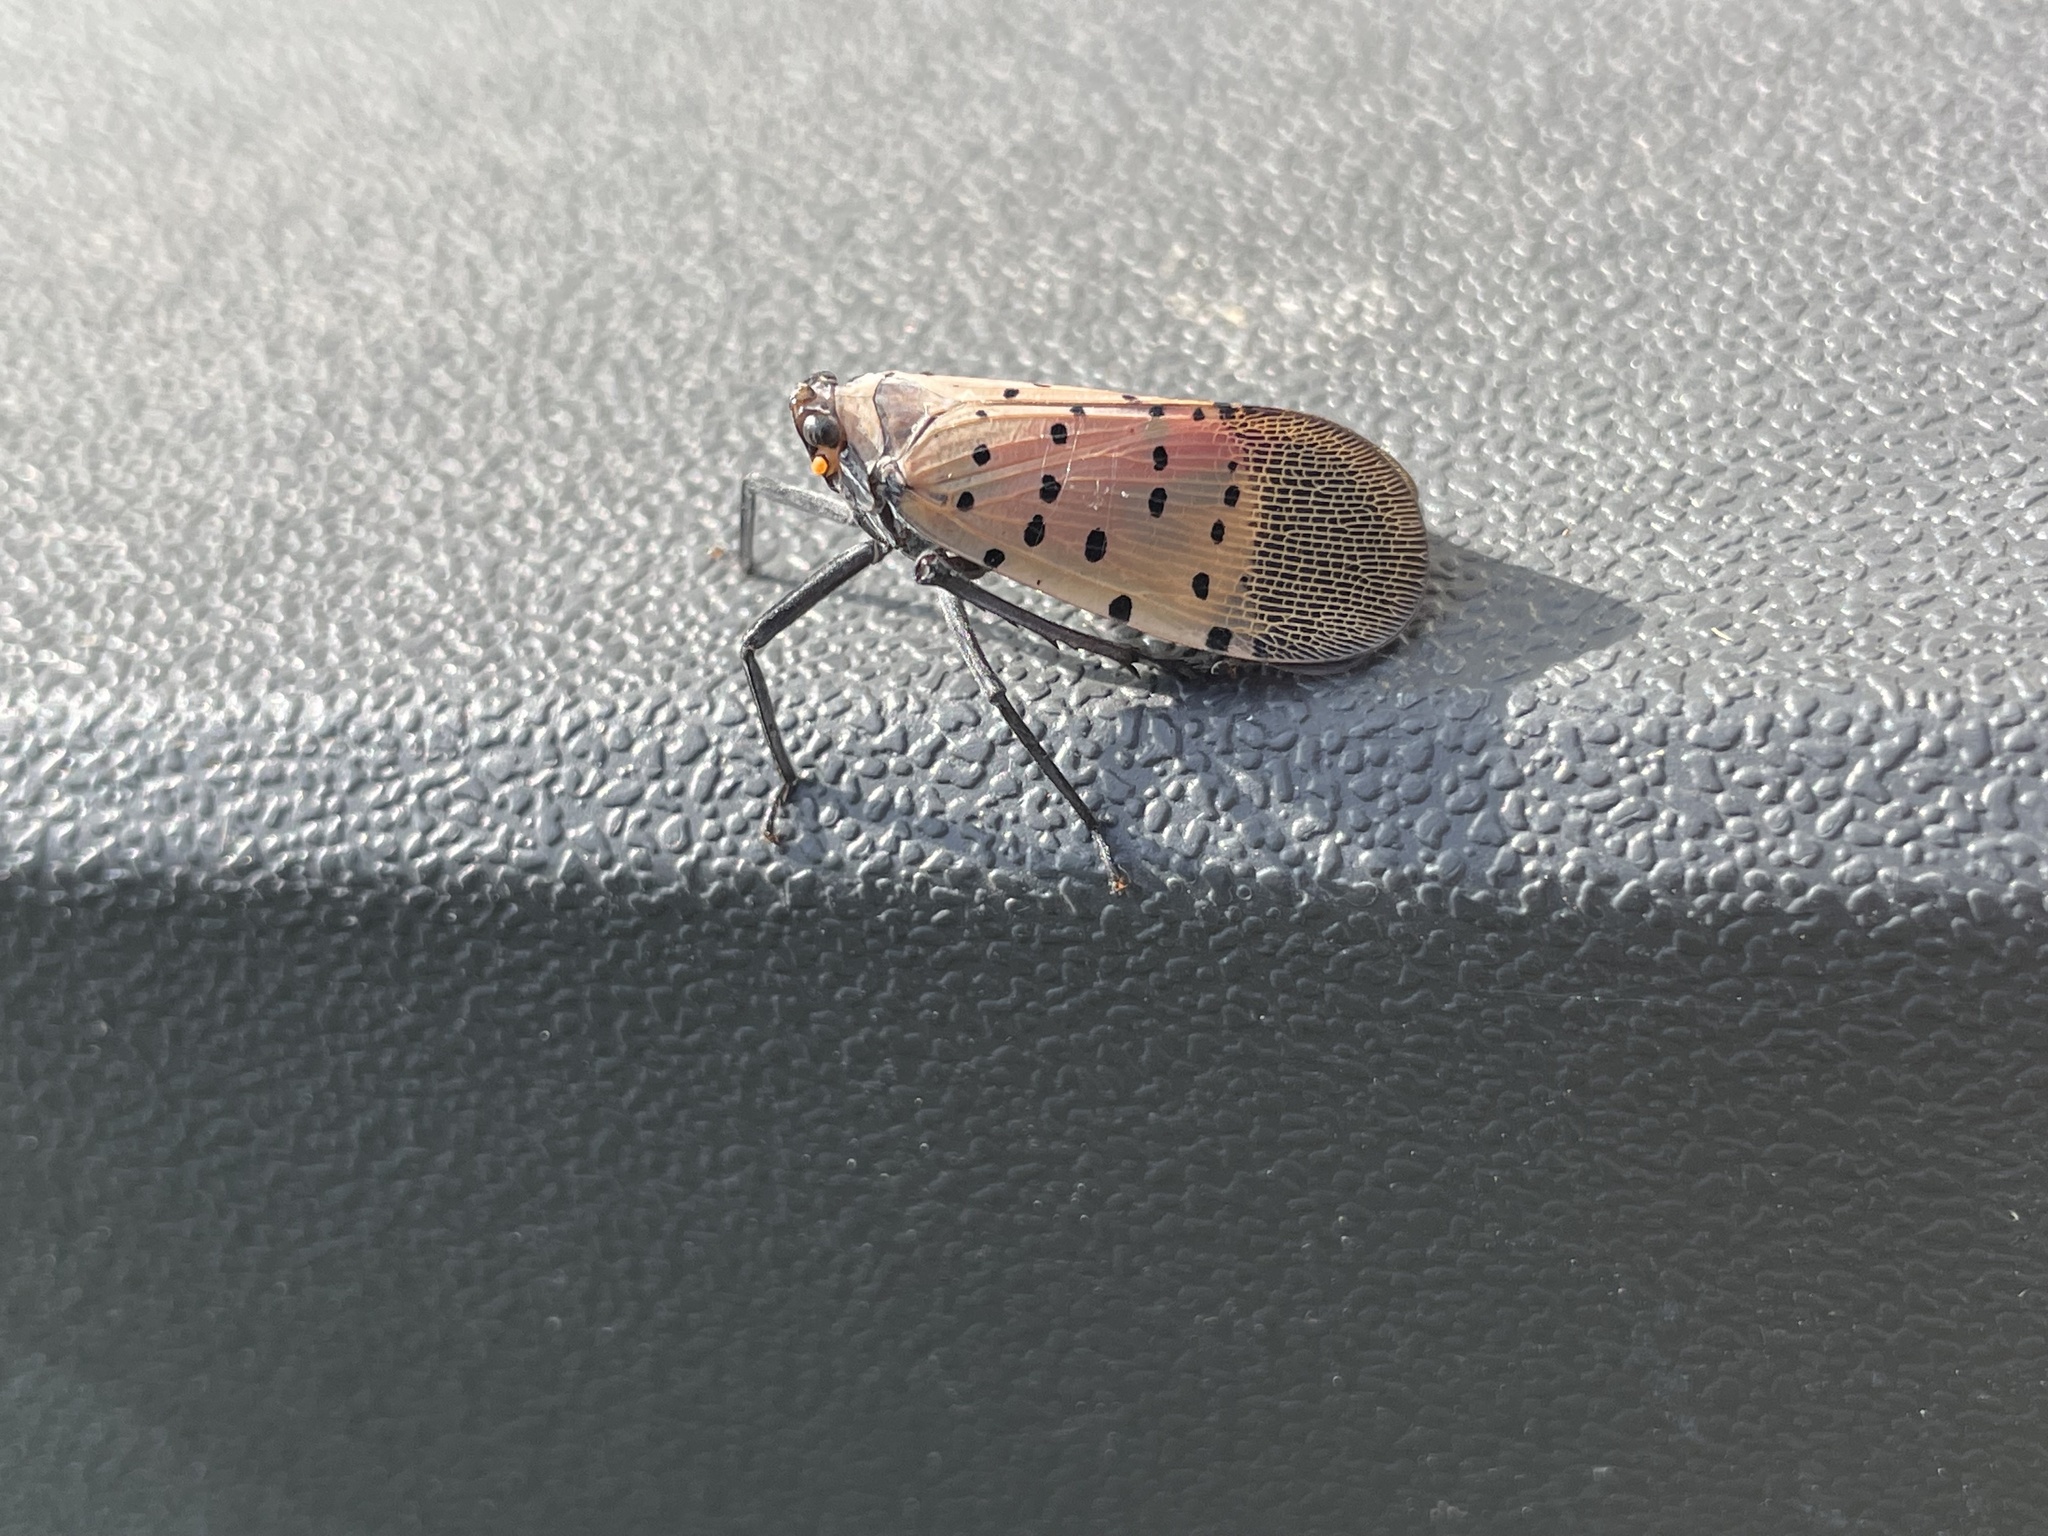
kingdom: Animalia
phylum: Arthropoda
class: Insecta
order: Hemiptera
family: Fulgoridae
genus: Lycorma
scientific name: Lycorma delicatula
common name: Spotted lanternfly
